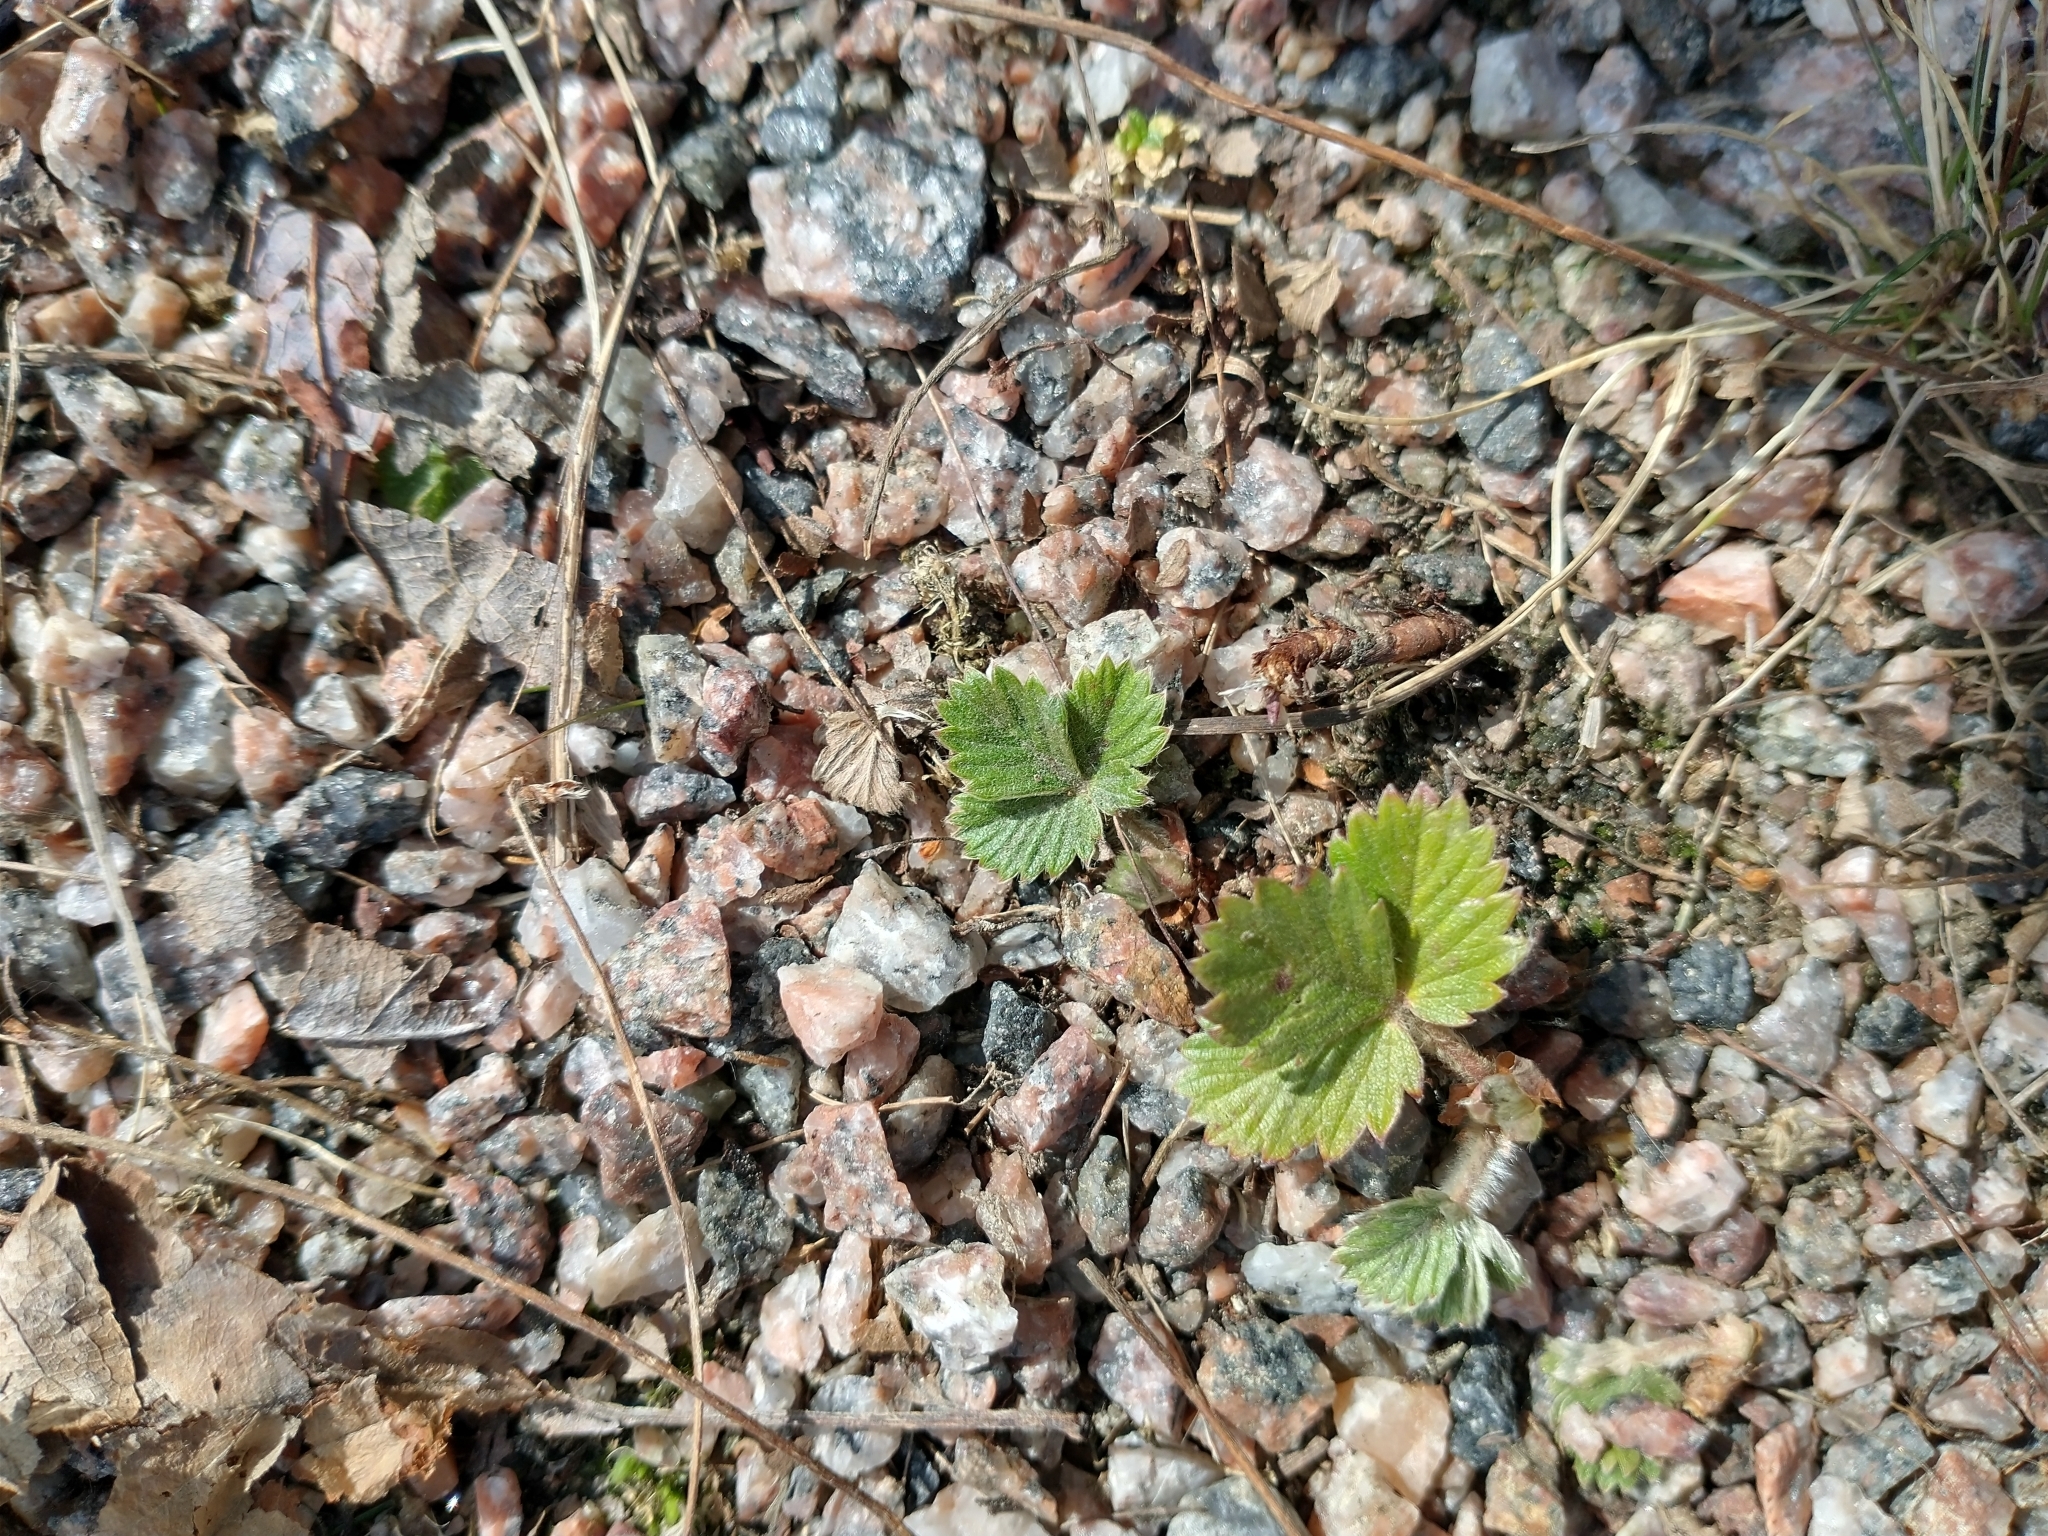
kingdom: Plantae
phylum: Tracheophyta
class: Magnoliopsida
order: Rosales
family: Rosaceae
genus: Fragaria
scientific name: Fragaria vesca
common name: Wild strawberry
